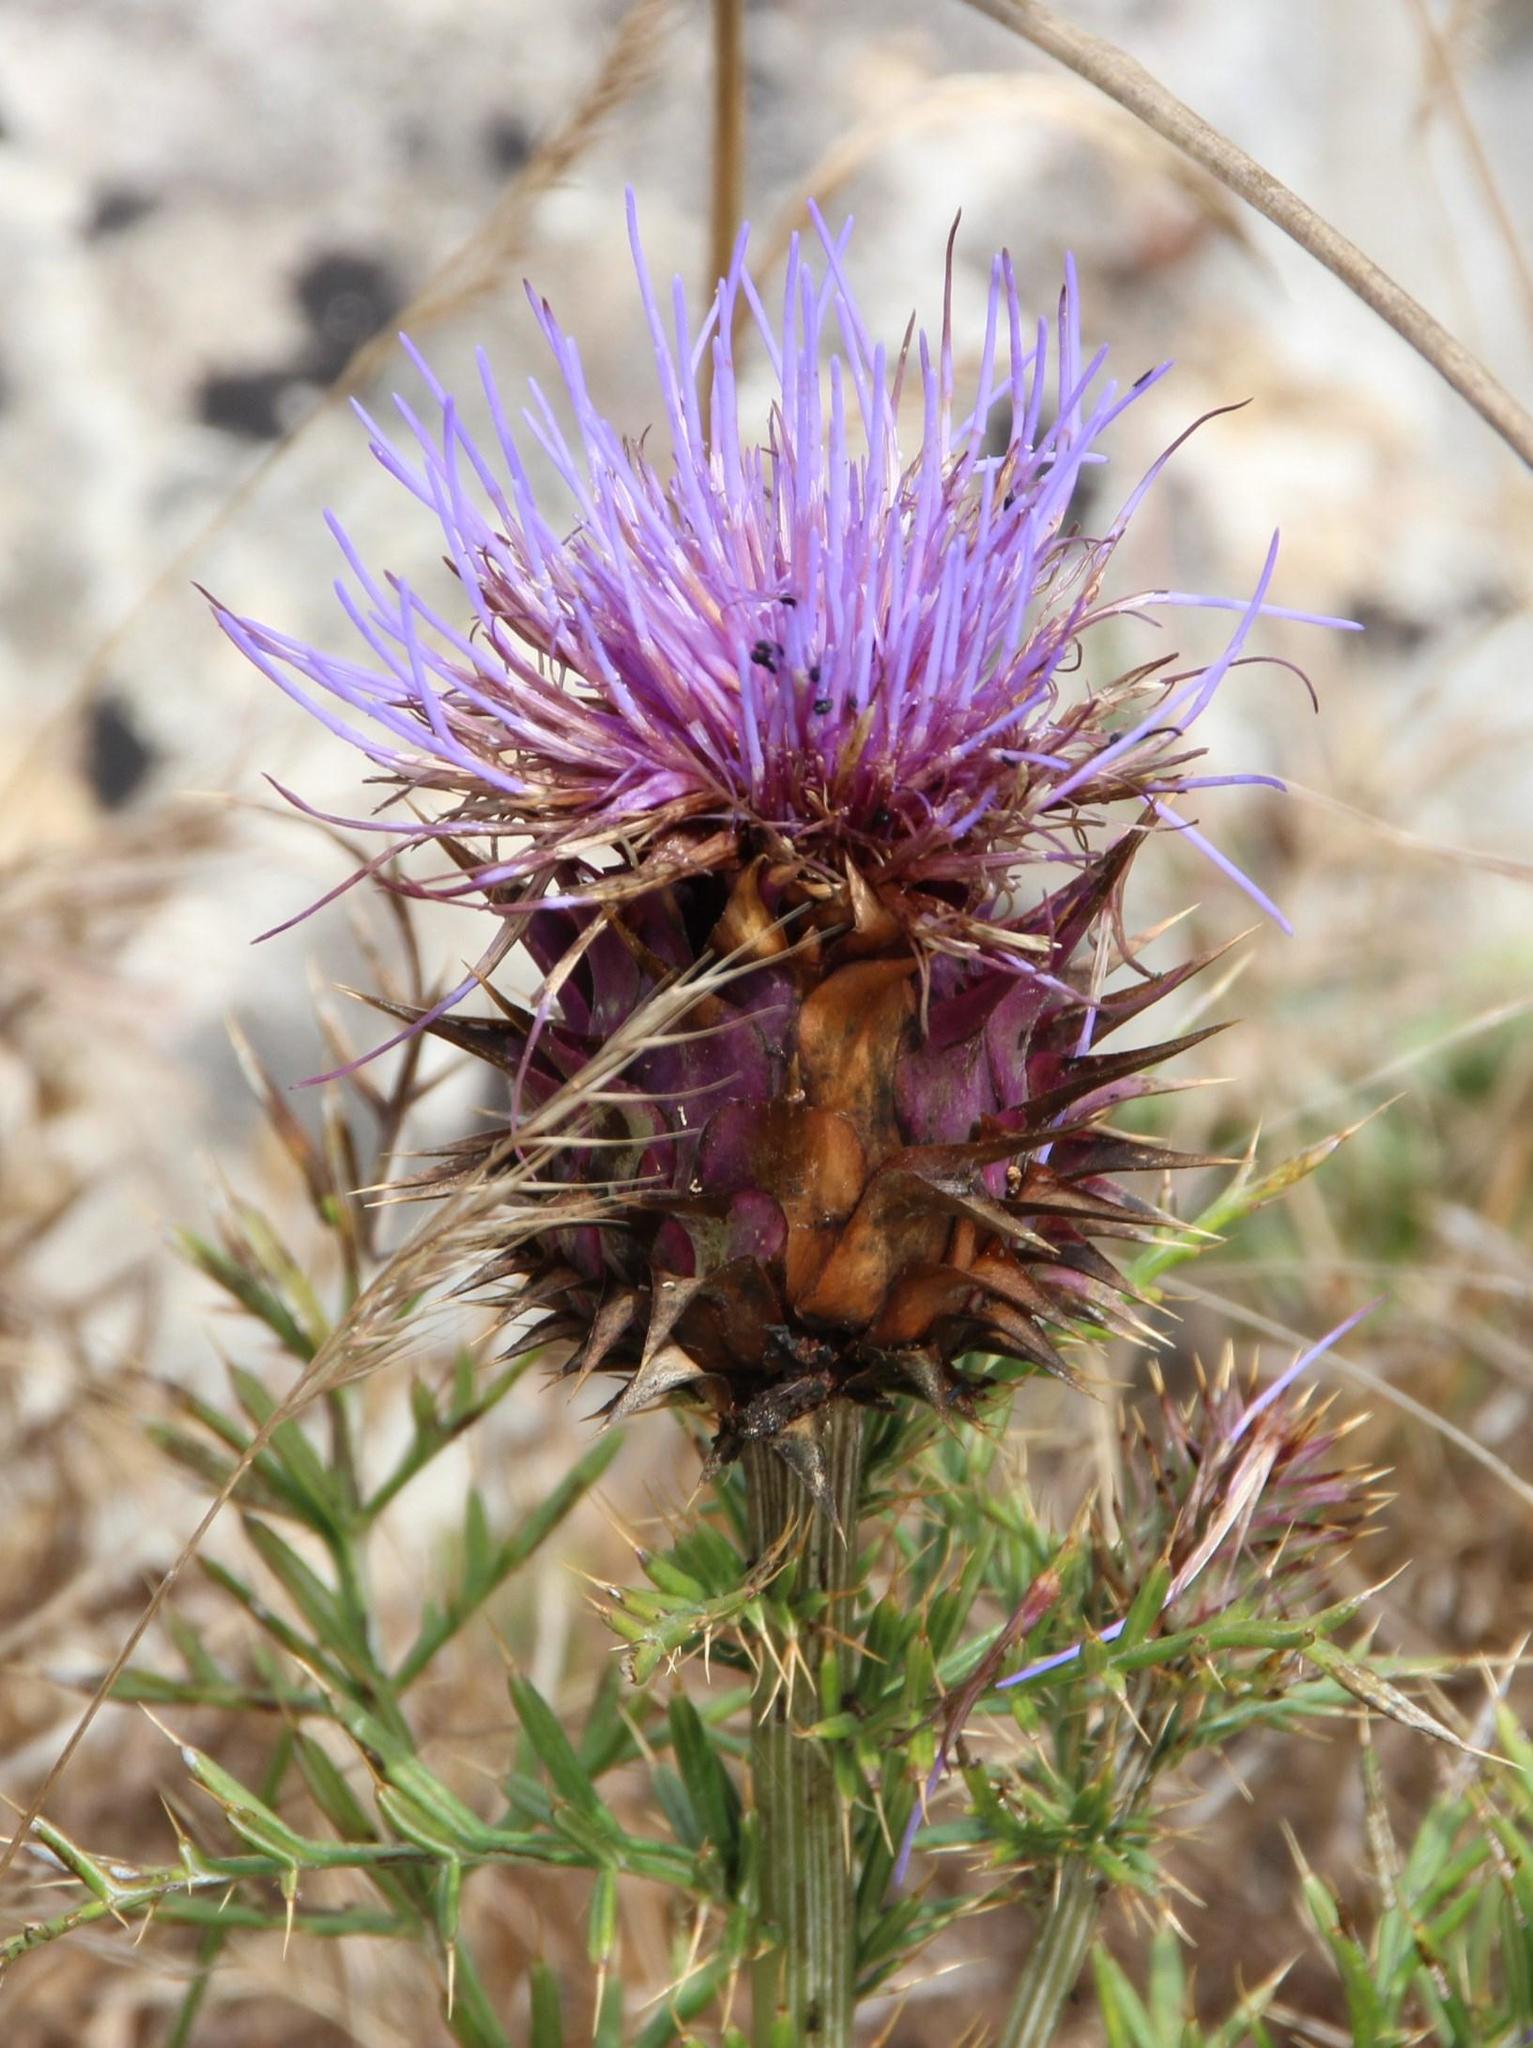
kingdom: Plantae
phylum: Tracheophyta
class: Magnoliopsida
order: Asterales
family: Asteraceae
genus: Cynara
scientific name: Cynara humilis
